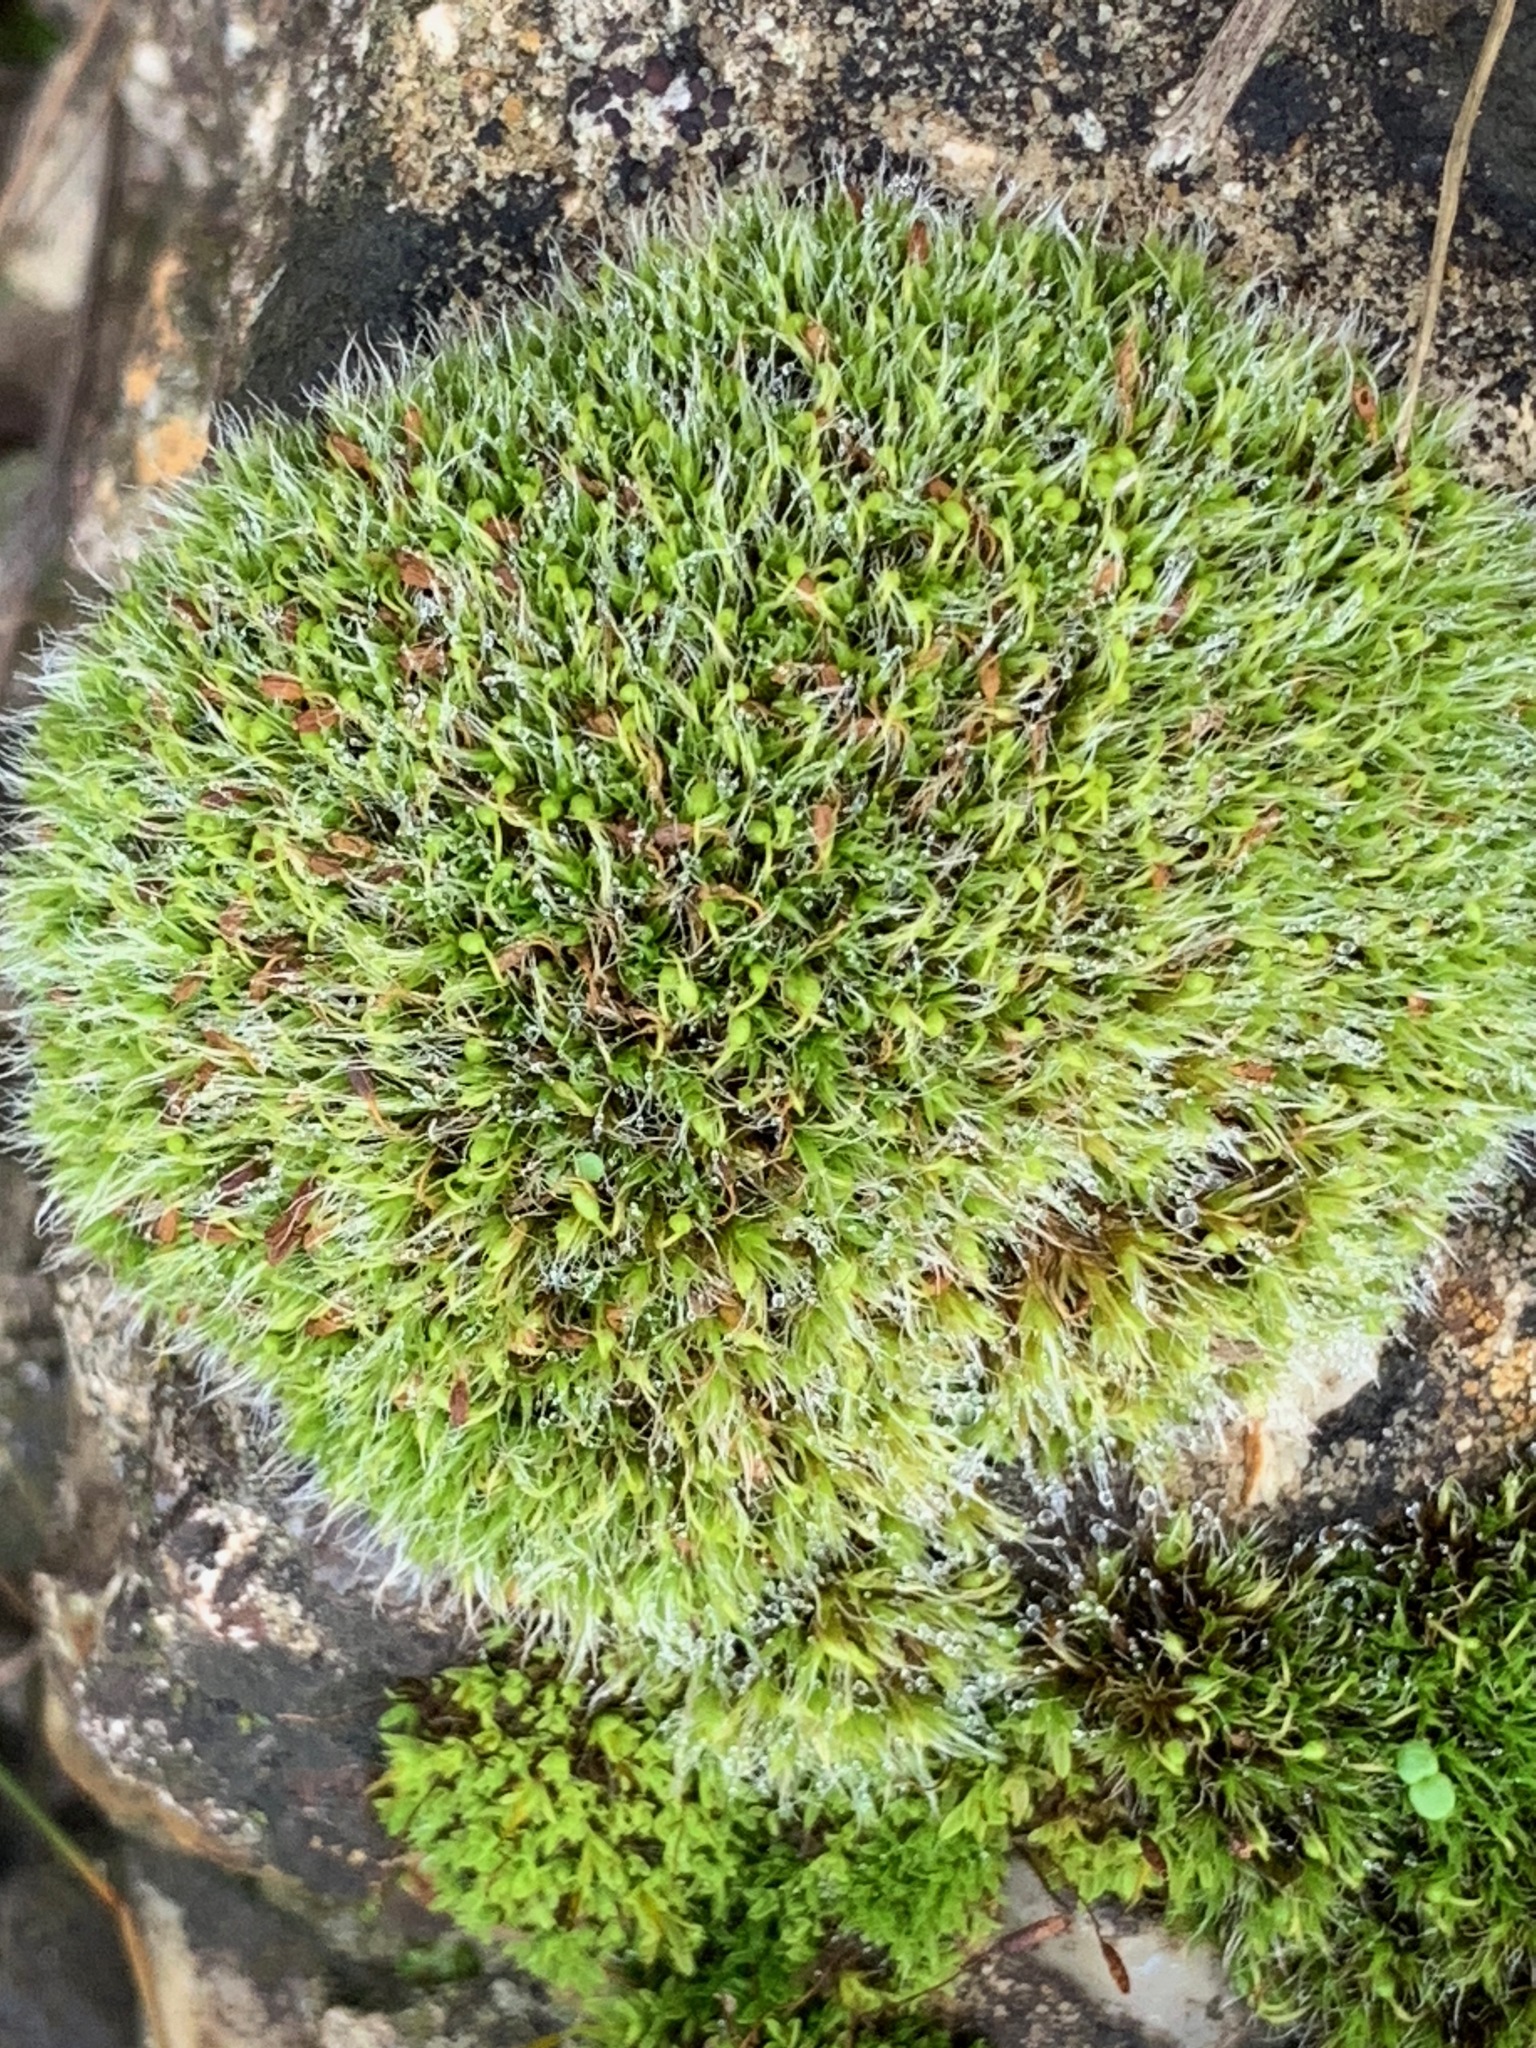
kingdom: Plantae
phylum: Bryophyta
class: Bryopsida
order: Grimmiales
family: Grimmiaceae
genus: Grimmia
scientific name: Grimmia pulvinata
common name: Grey-cushioned grimmia
